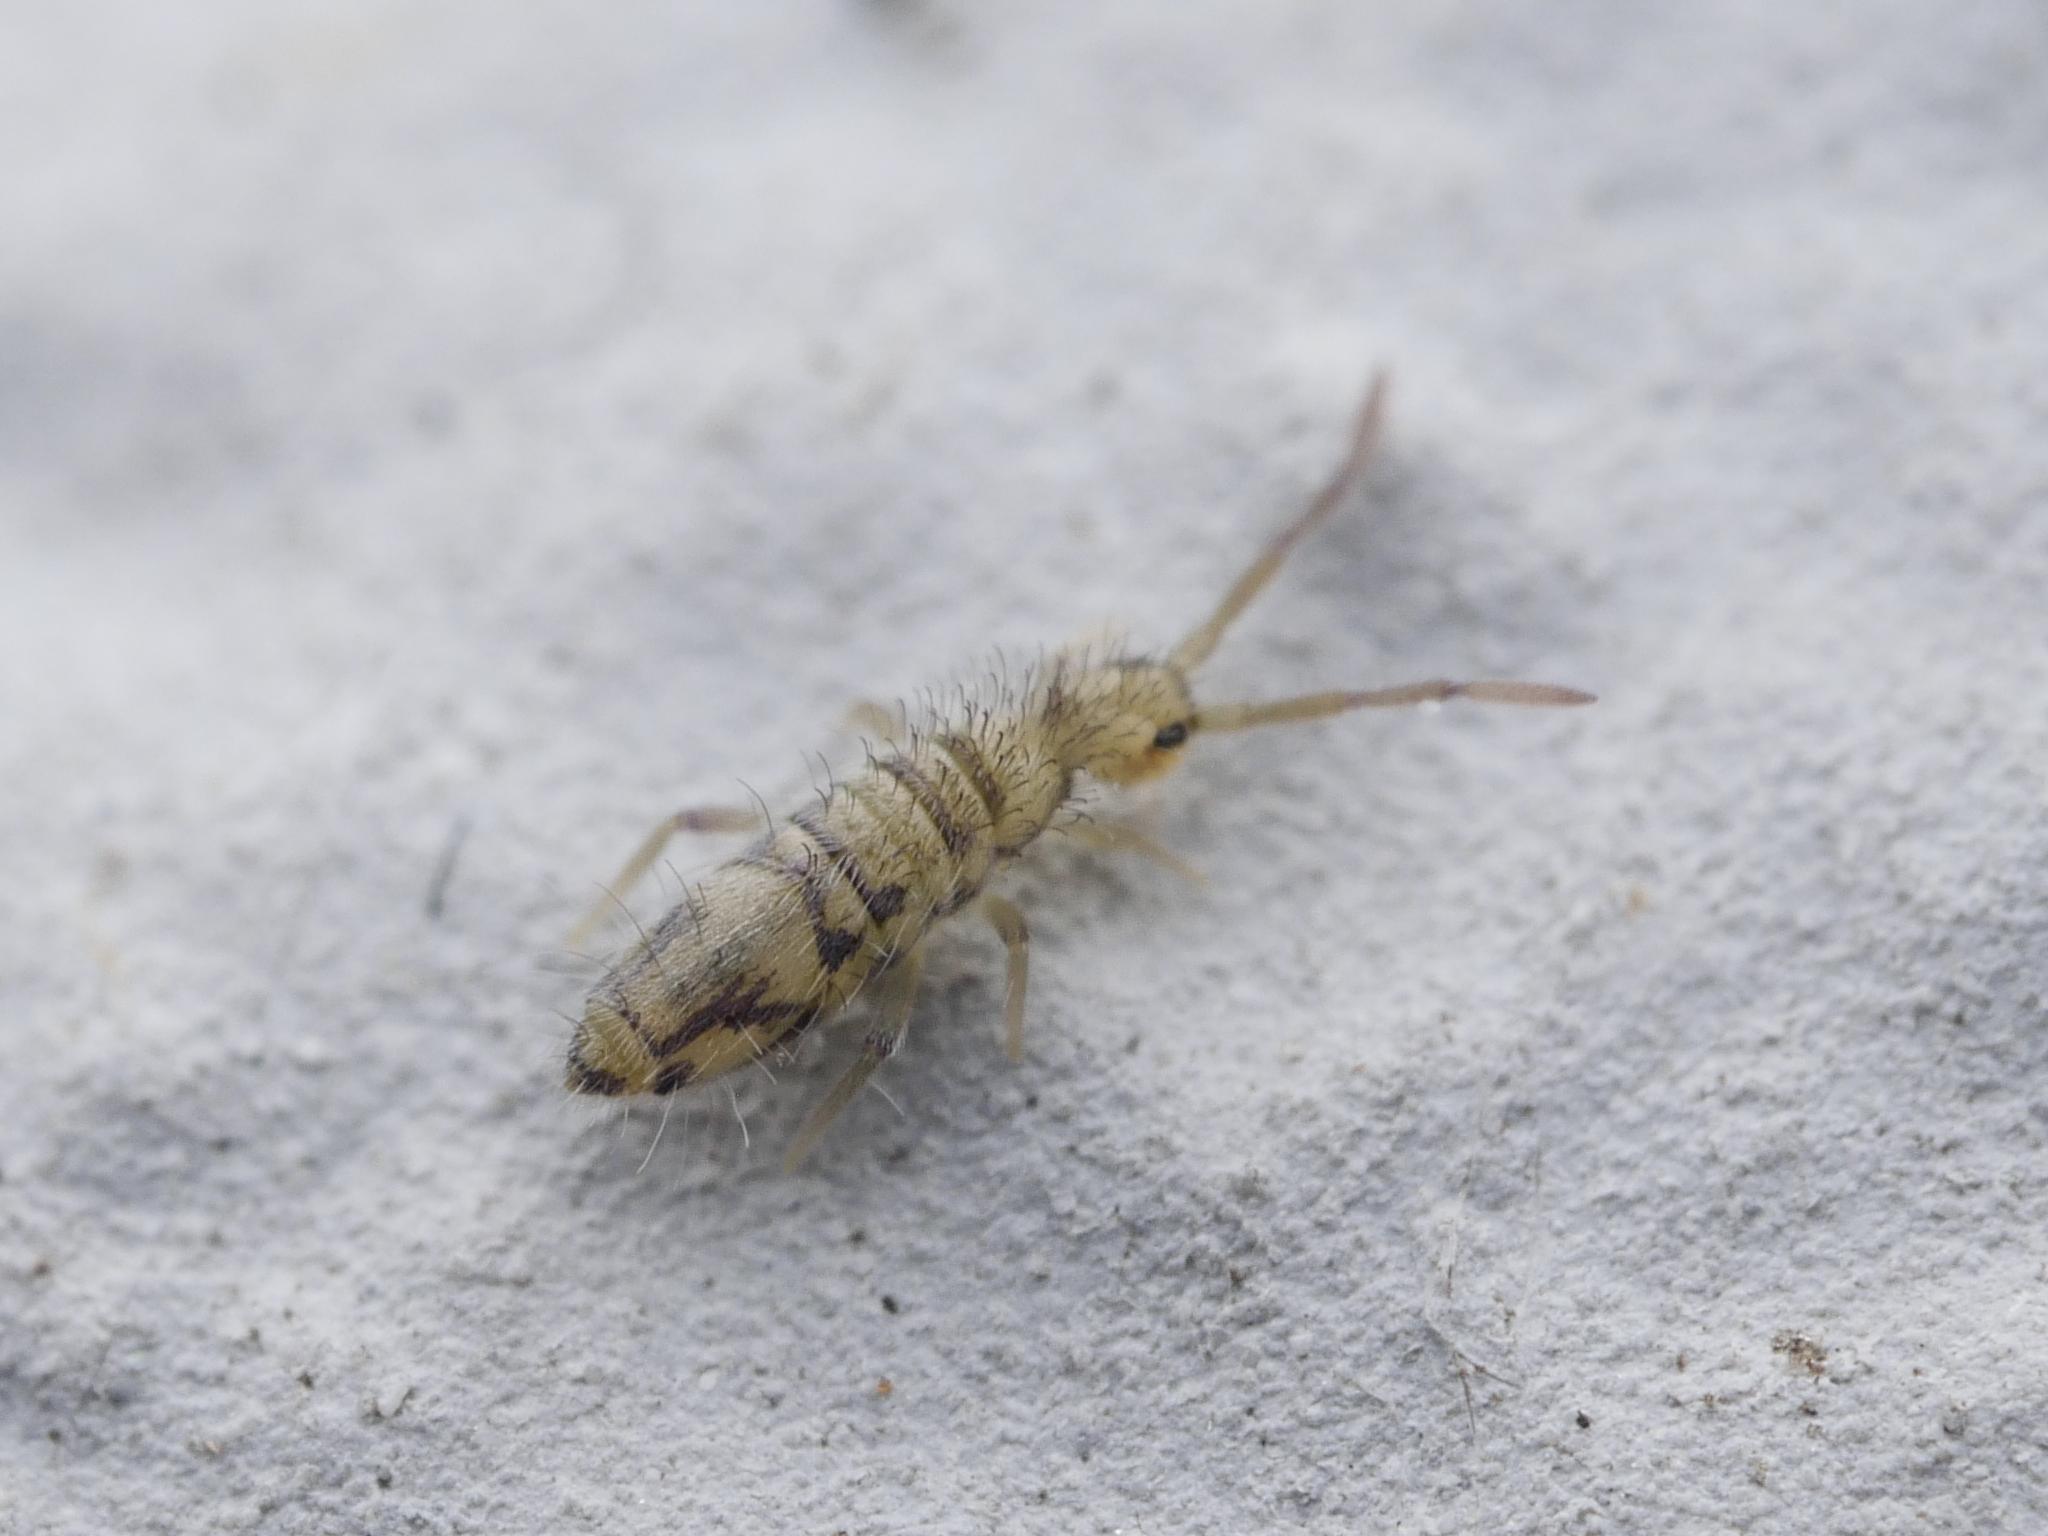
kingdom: Animalia
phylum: Arthropoda
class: Collembola
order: Entomobryomorpha
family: Entomobryidae
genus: Entomobrya
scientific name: Entomobrya nivalis
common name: Cosmopolitan springtail
